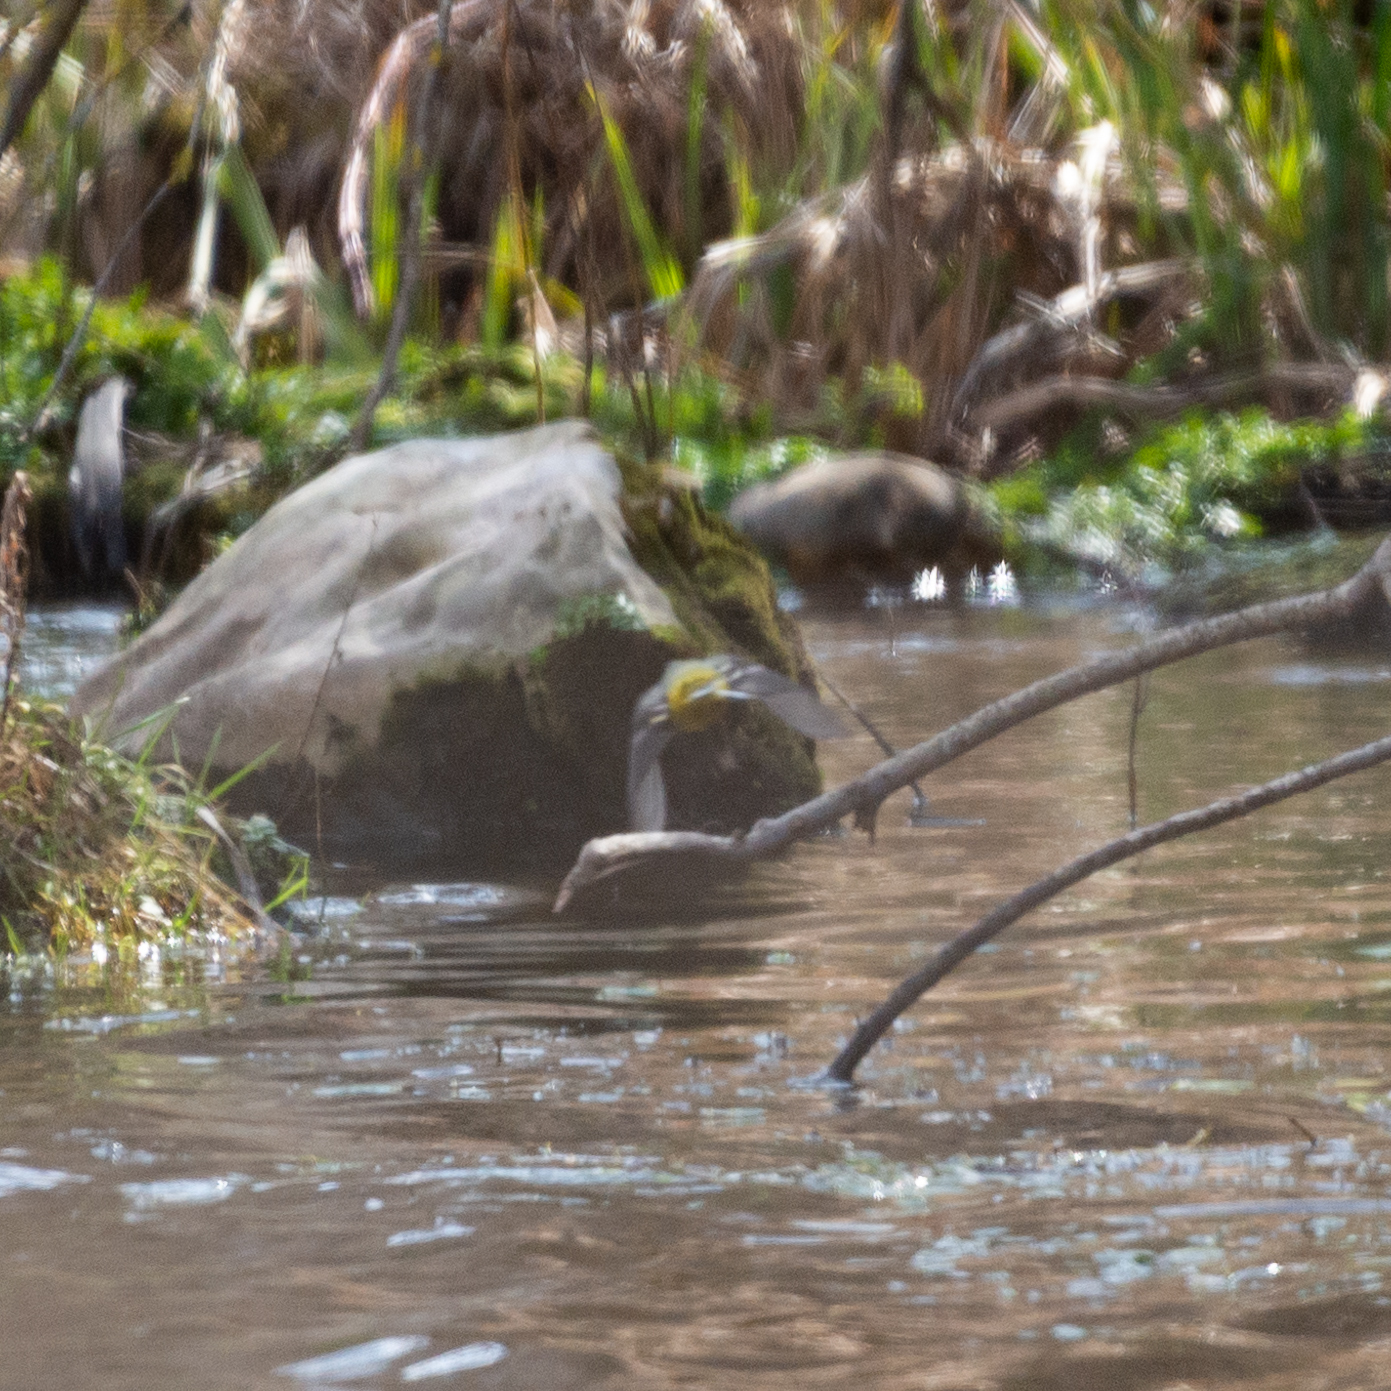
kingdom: Animalia
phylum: Chordata
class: Aves
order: Passeriformes
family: Motacillidae
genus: Motacilla
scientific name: Motacilla cinerea
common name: Grey wagtail
